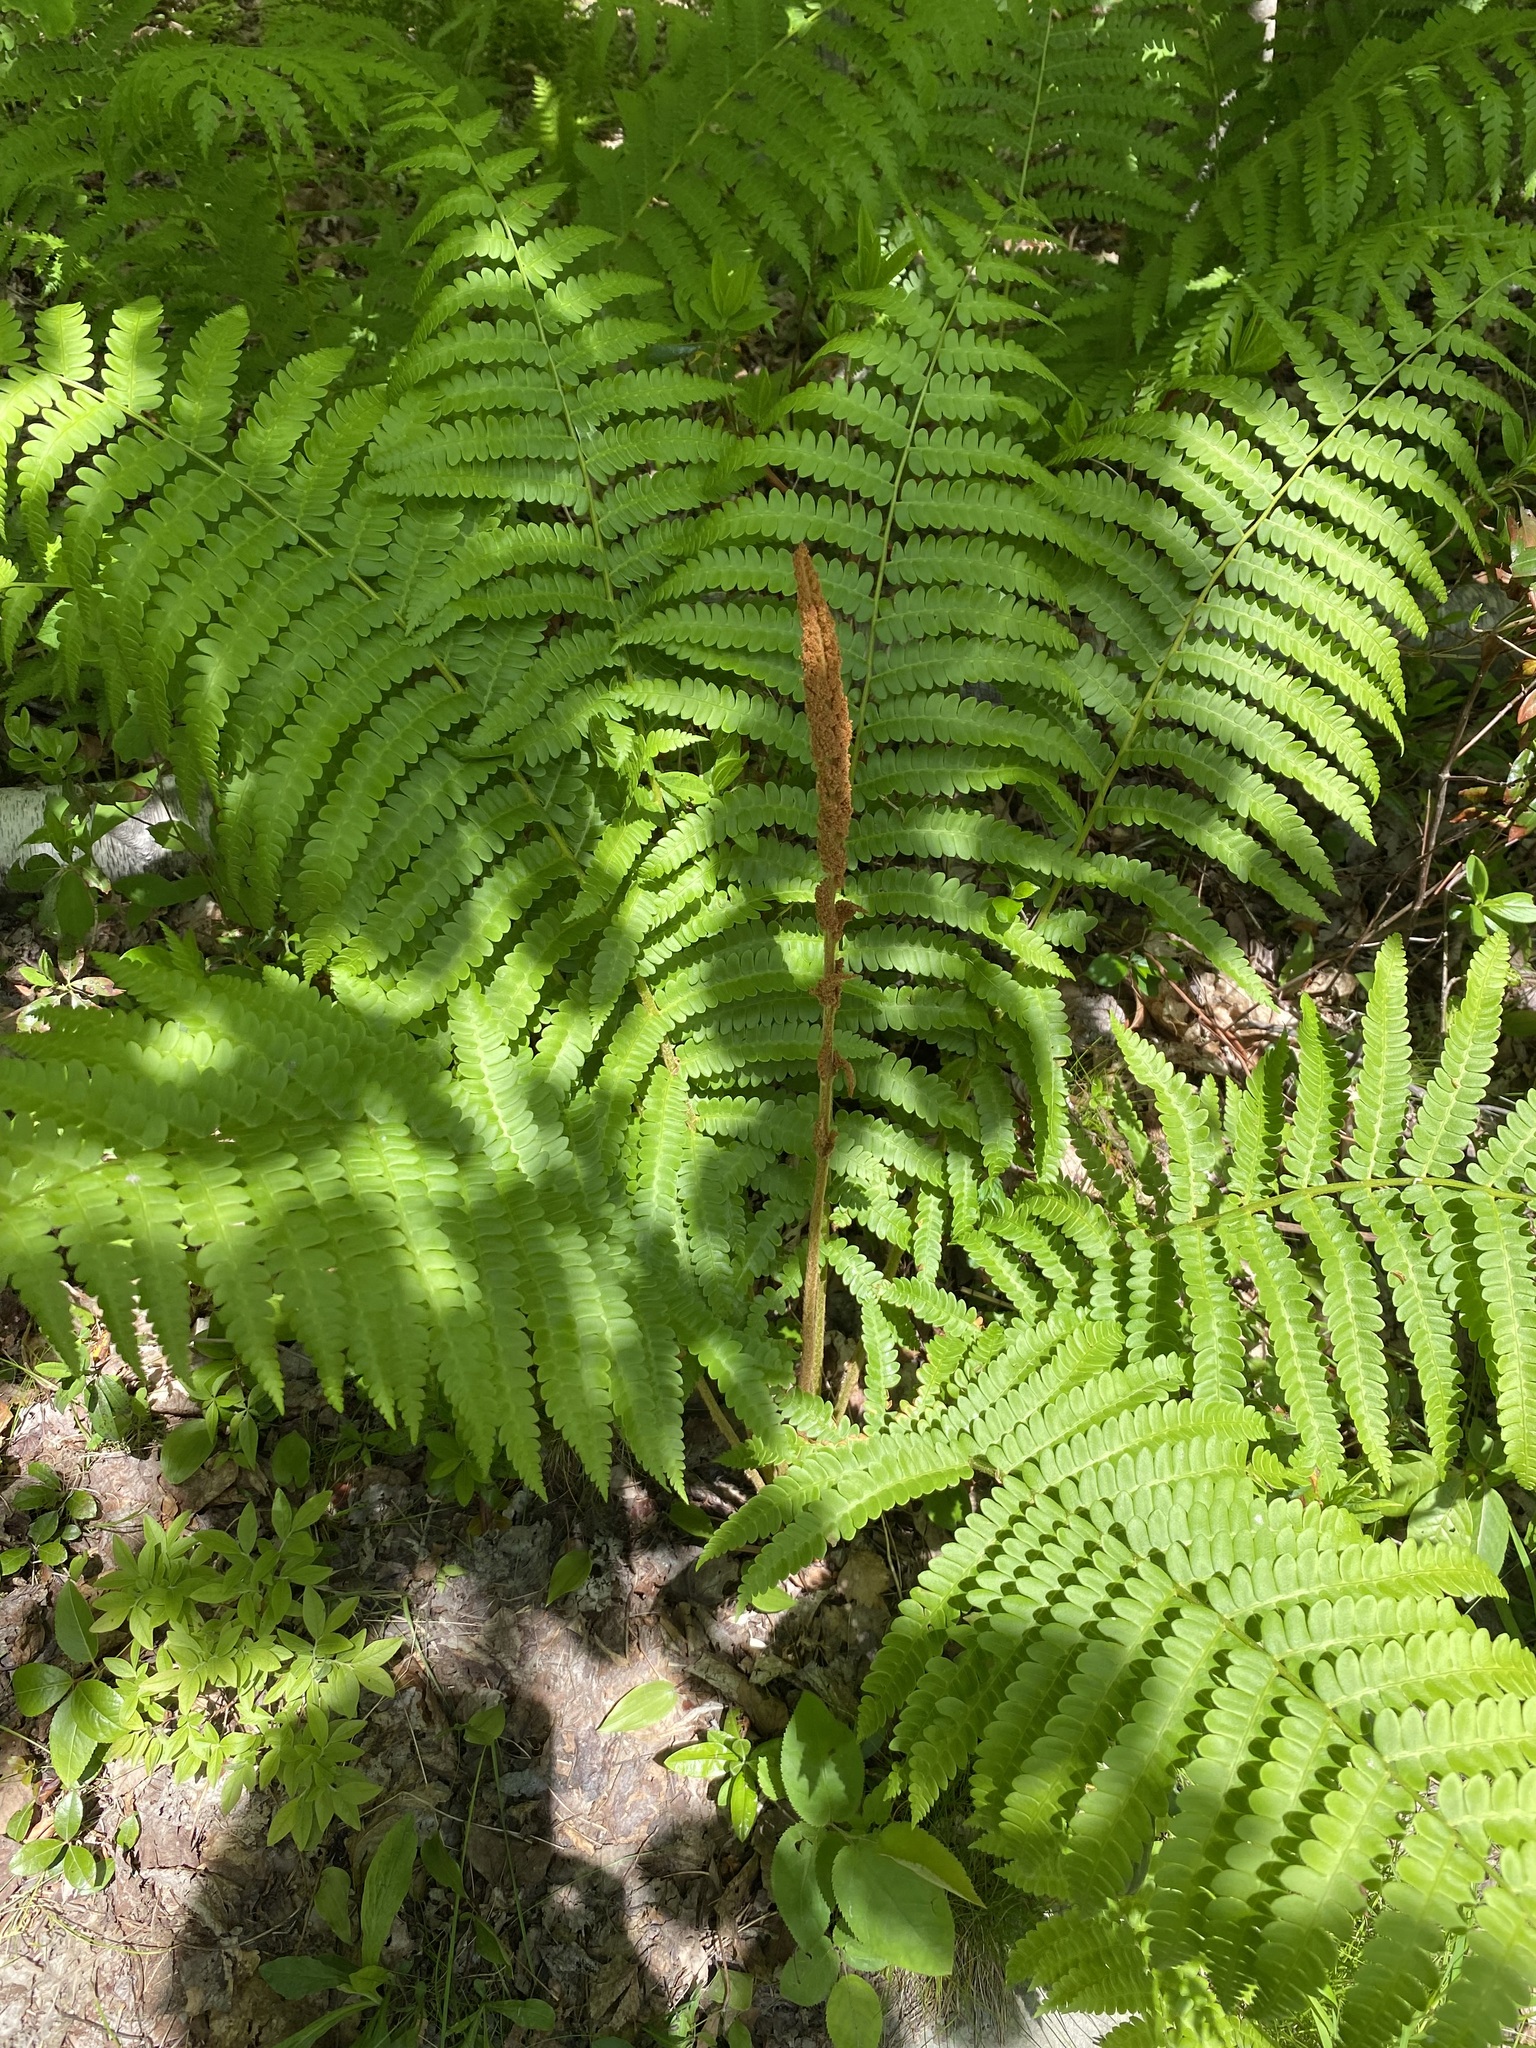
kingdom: Plantae
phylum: Tracheophyta
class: Polypodiopsida
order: Osmundales
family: Osmundaceae
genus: Osmundastrum
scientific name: Osmundastrum cinnamomeum
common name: Cinnamon fern
